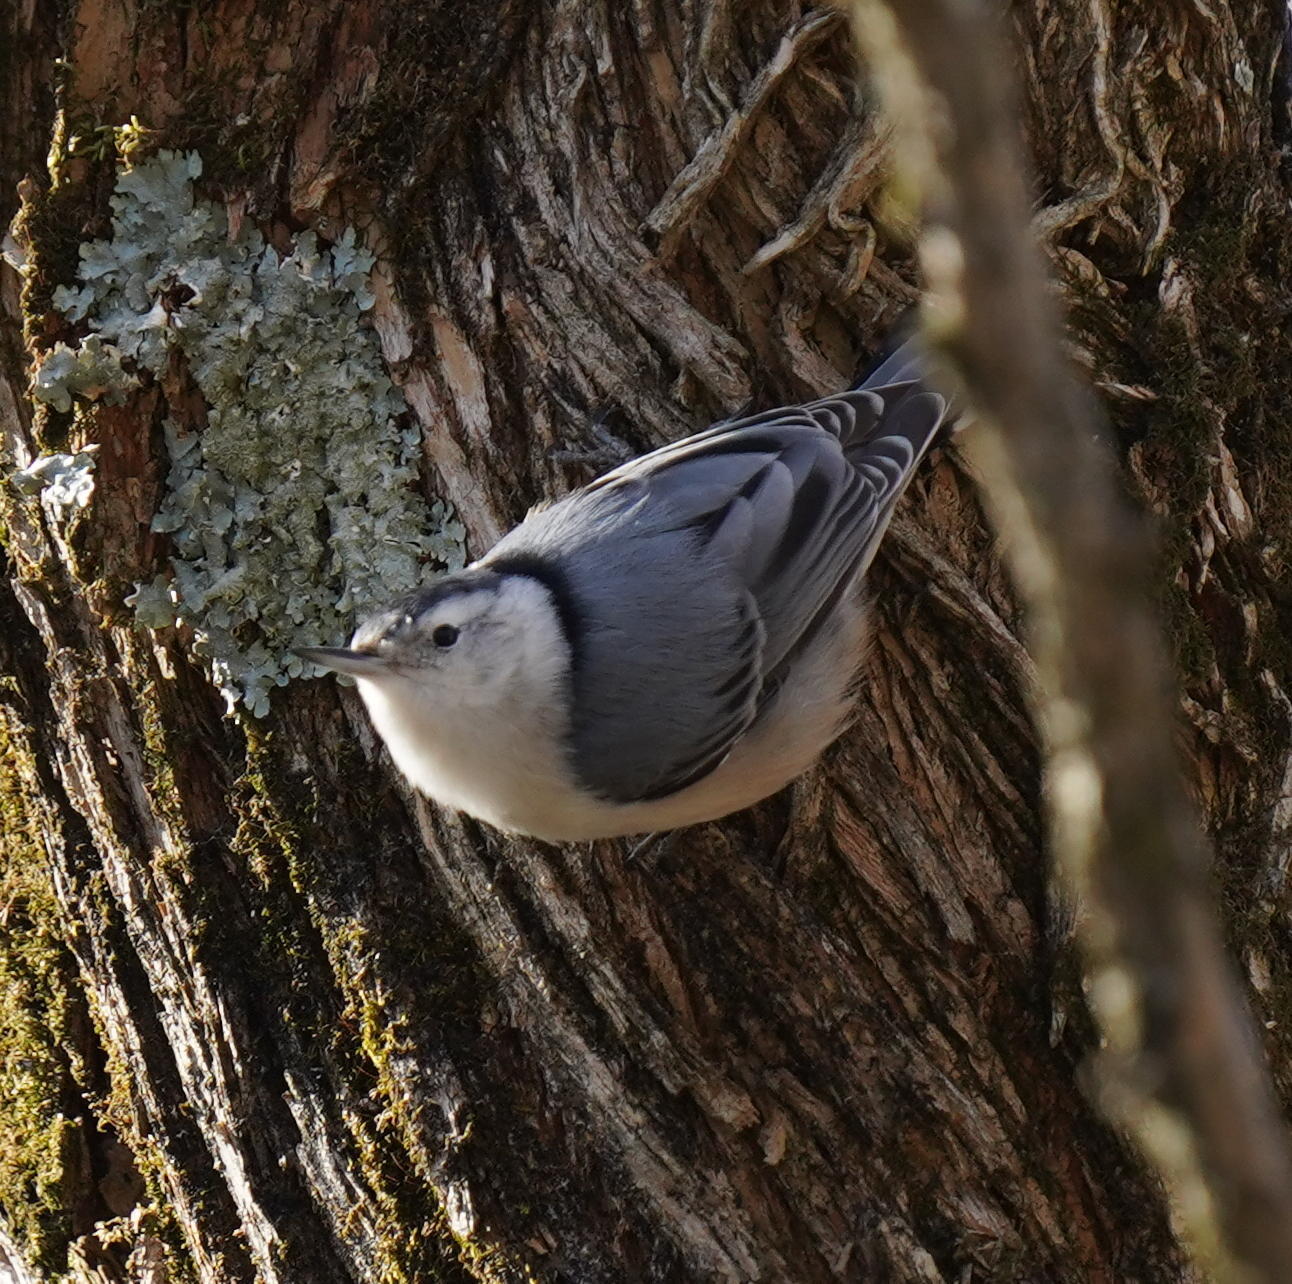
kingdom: Animalia
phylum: Chordata
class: Aves
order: Passeriformes
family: Sittidae
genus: Sitta
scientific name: Sitta carolinensis
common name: White-breasted nuthatch
